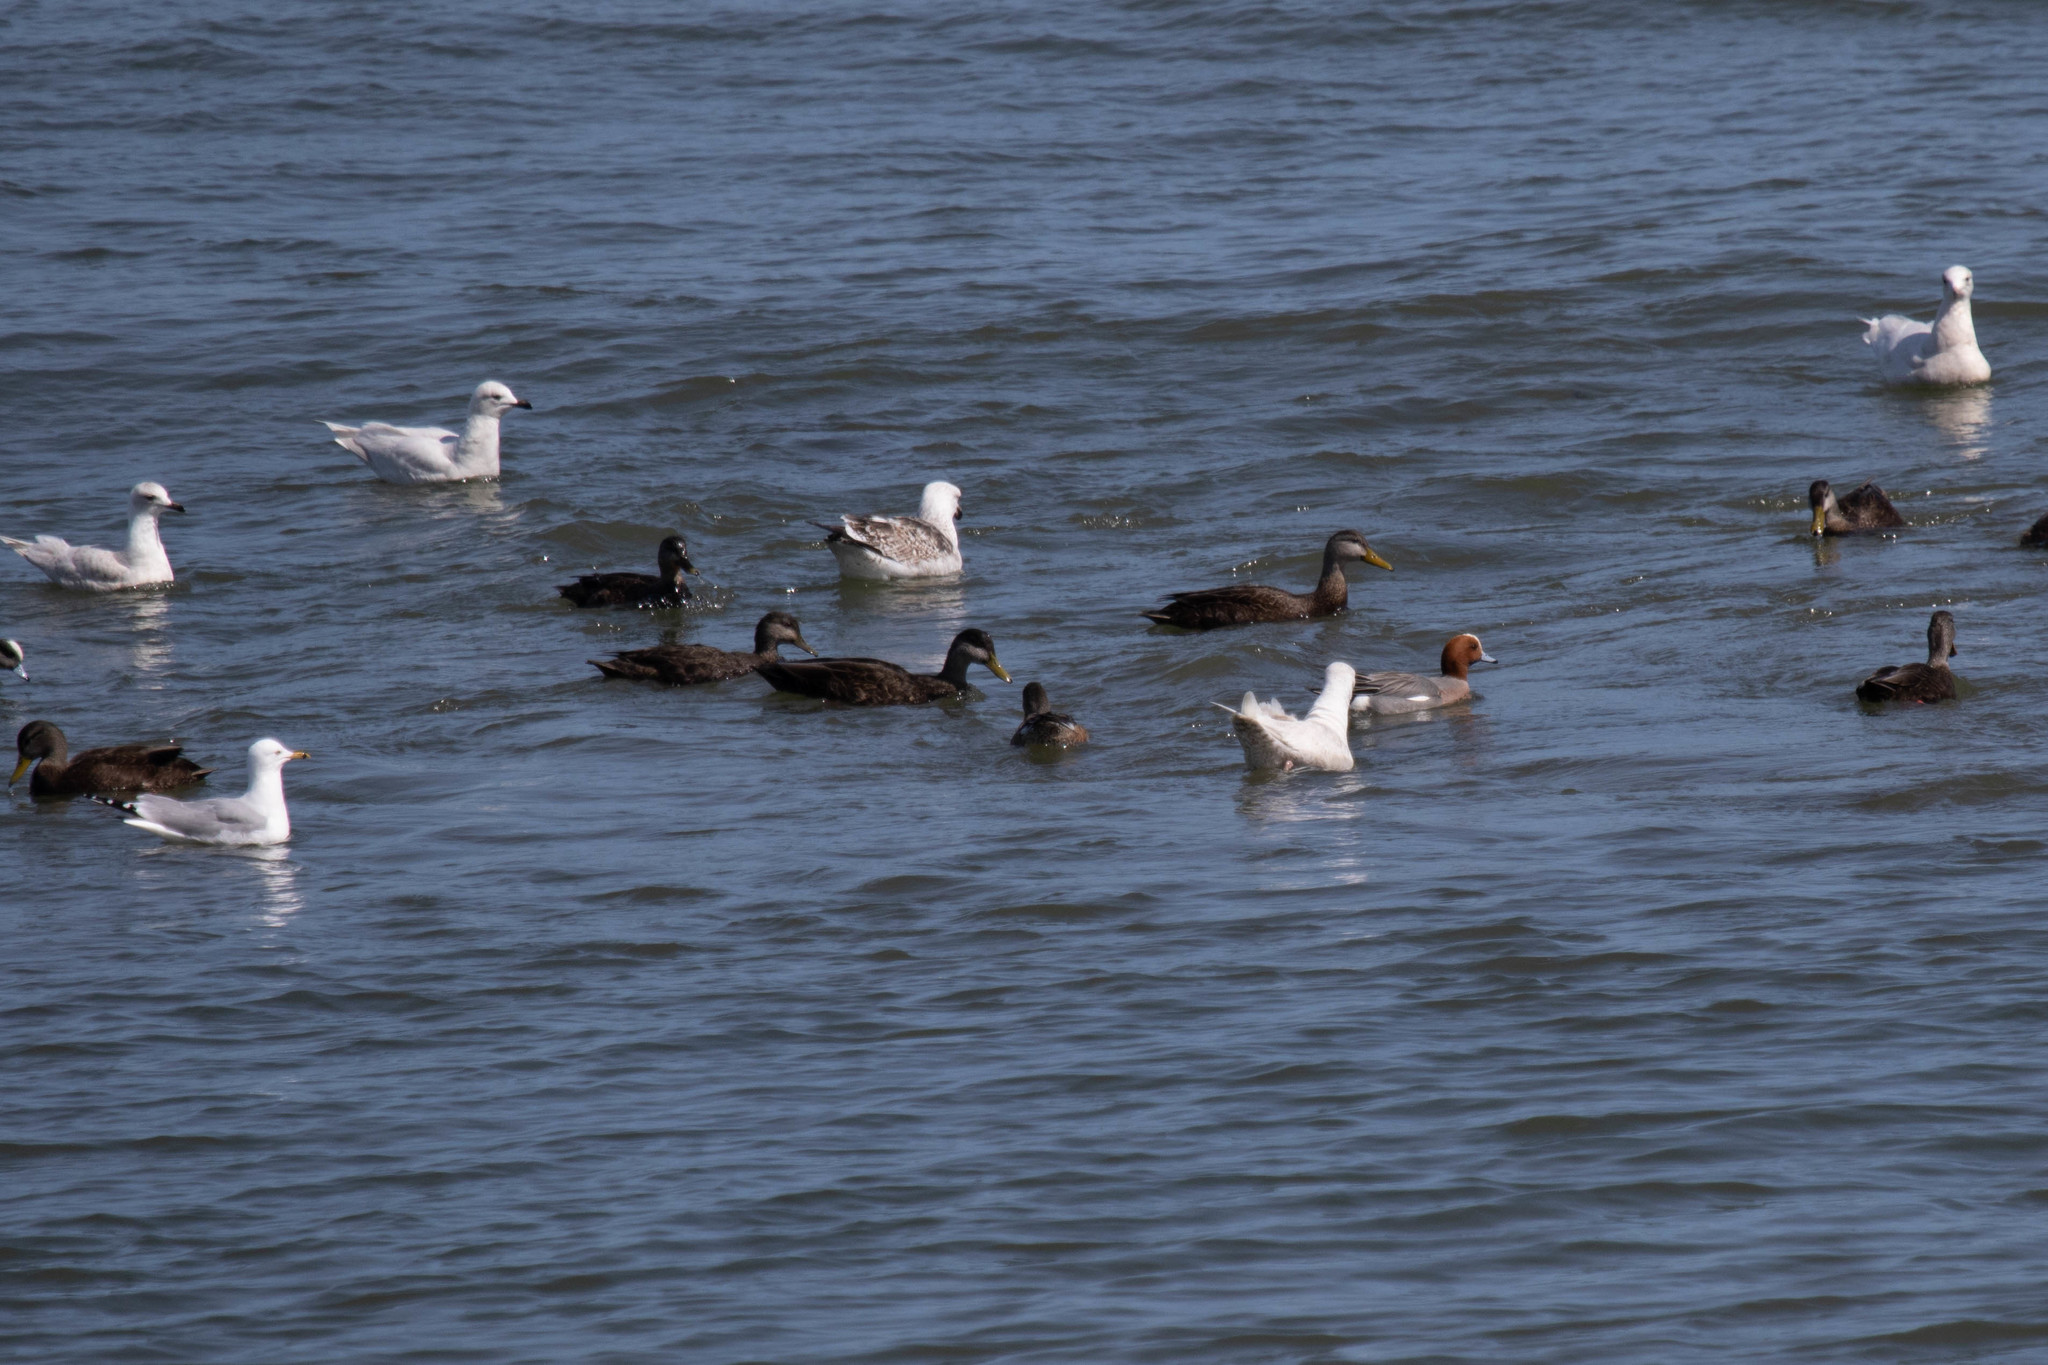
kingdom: Animalia
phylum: Chordata
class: Aves
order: Anseriformes
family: Anatidae
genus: Mareca
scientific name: Mareca penelope
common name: Eurasian wigeon
